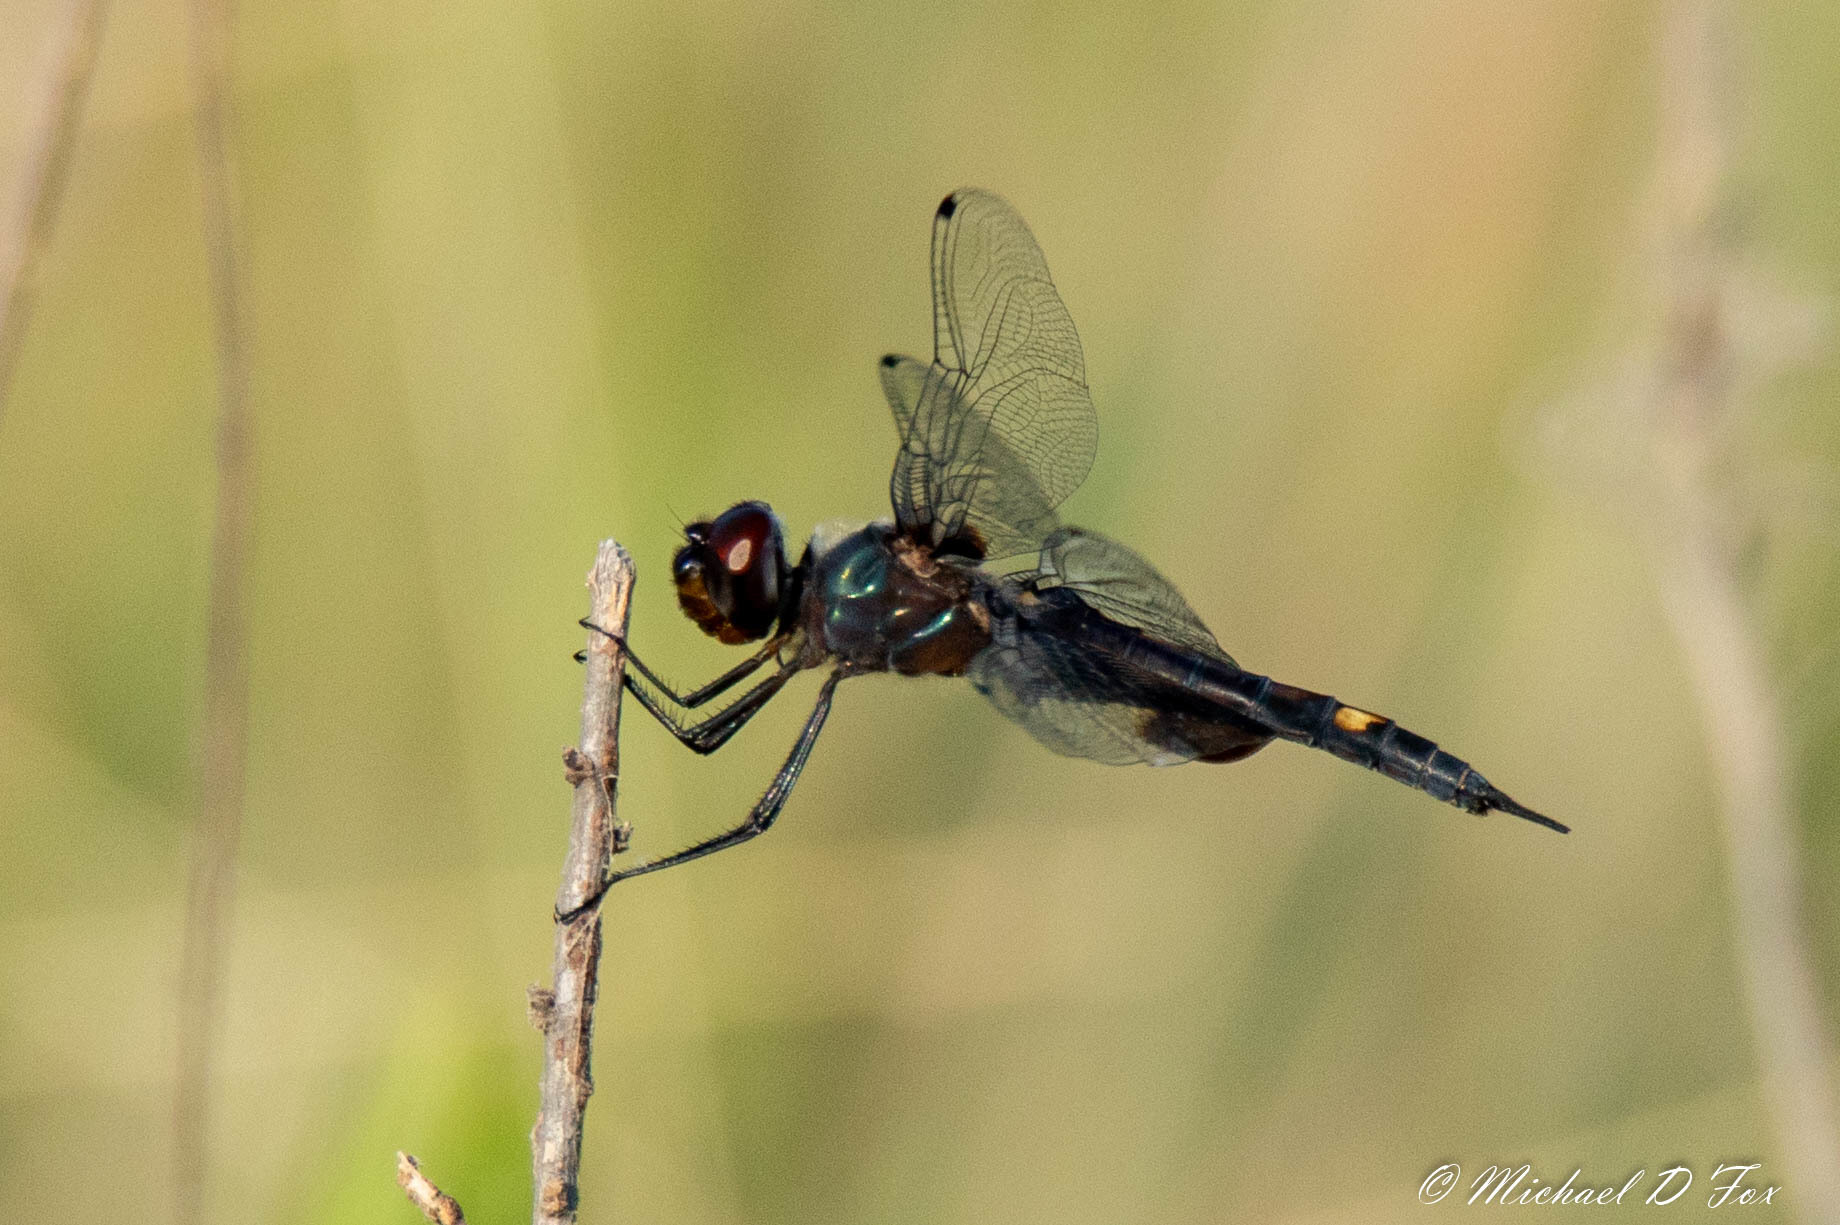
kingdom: Animalia
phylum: Arthropoda
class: Insecta
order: Odonata
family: Libellulidae
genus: Tramea
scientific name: Tramea lacerata
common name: Black saddlebags
